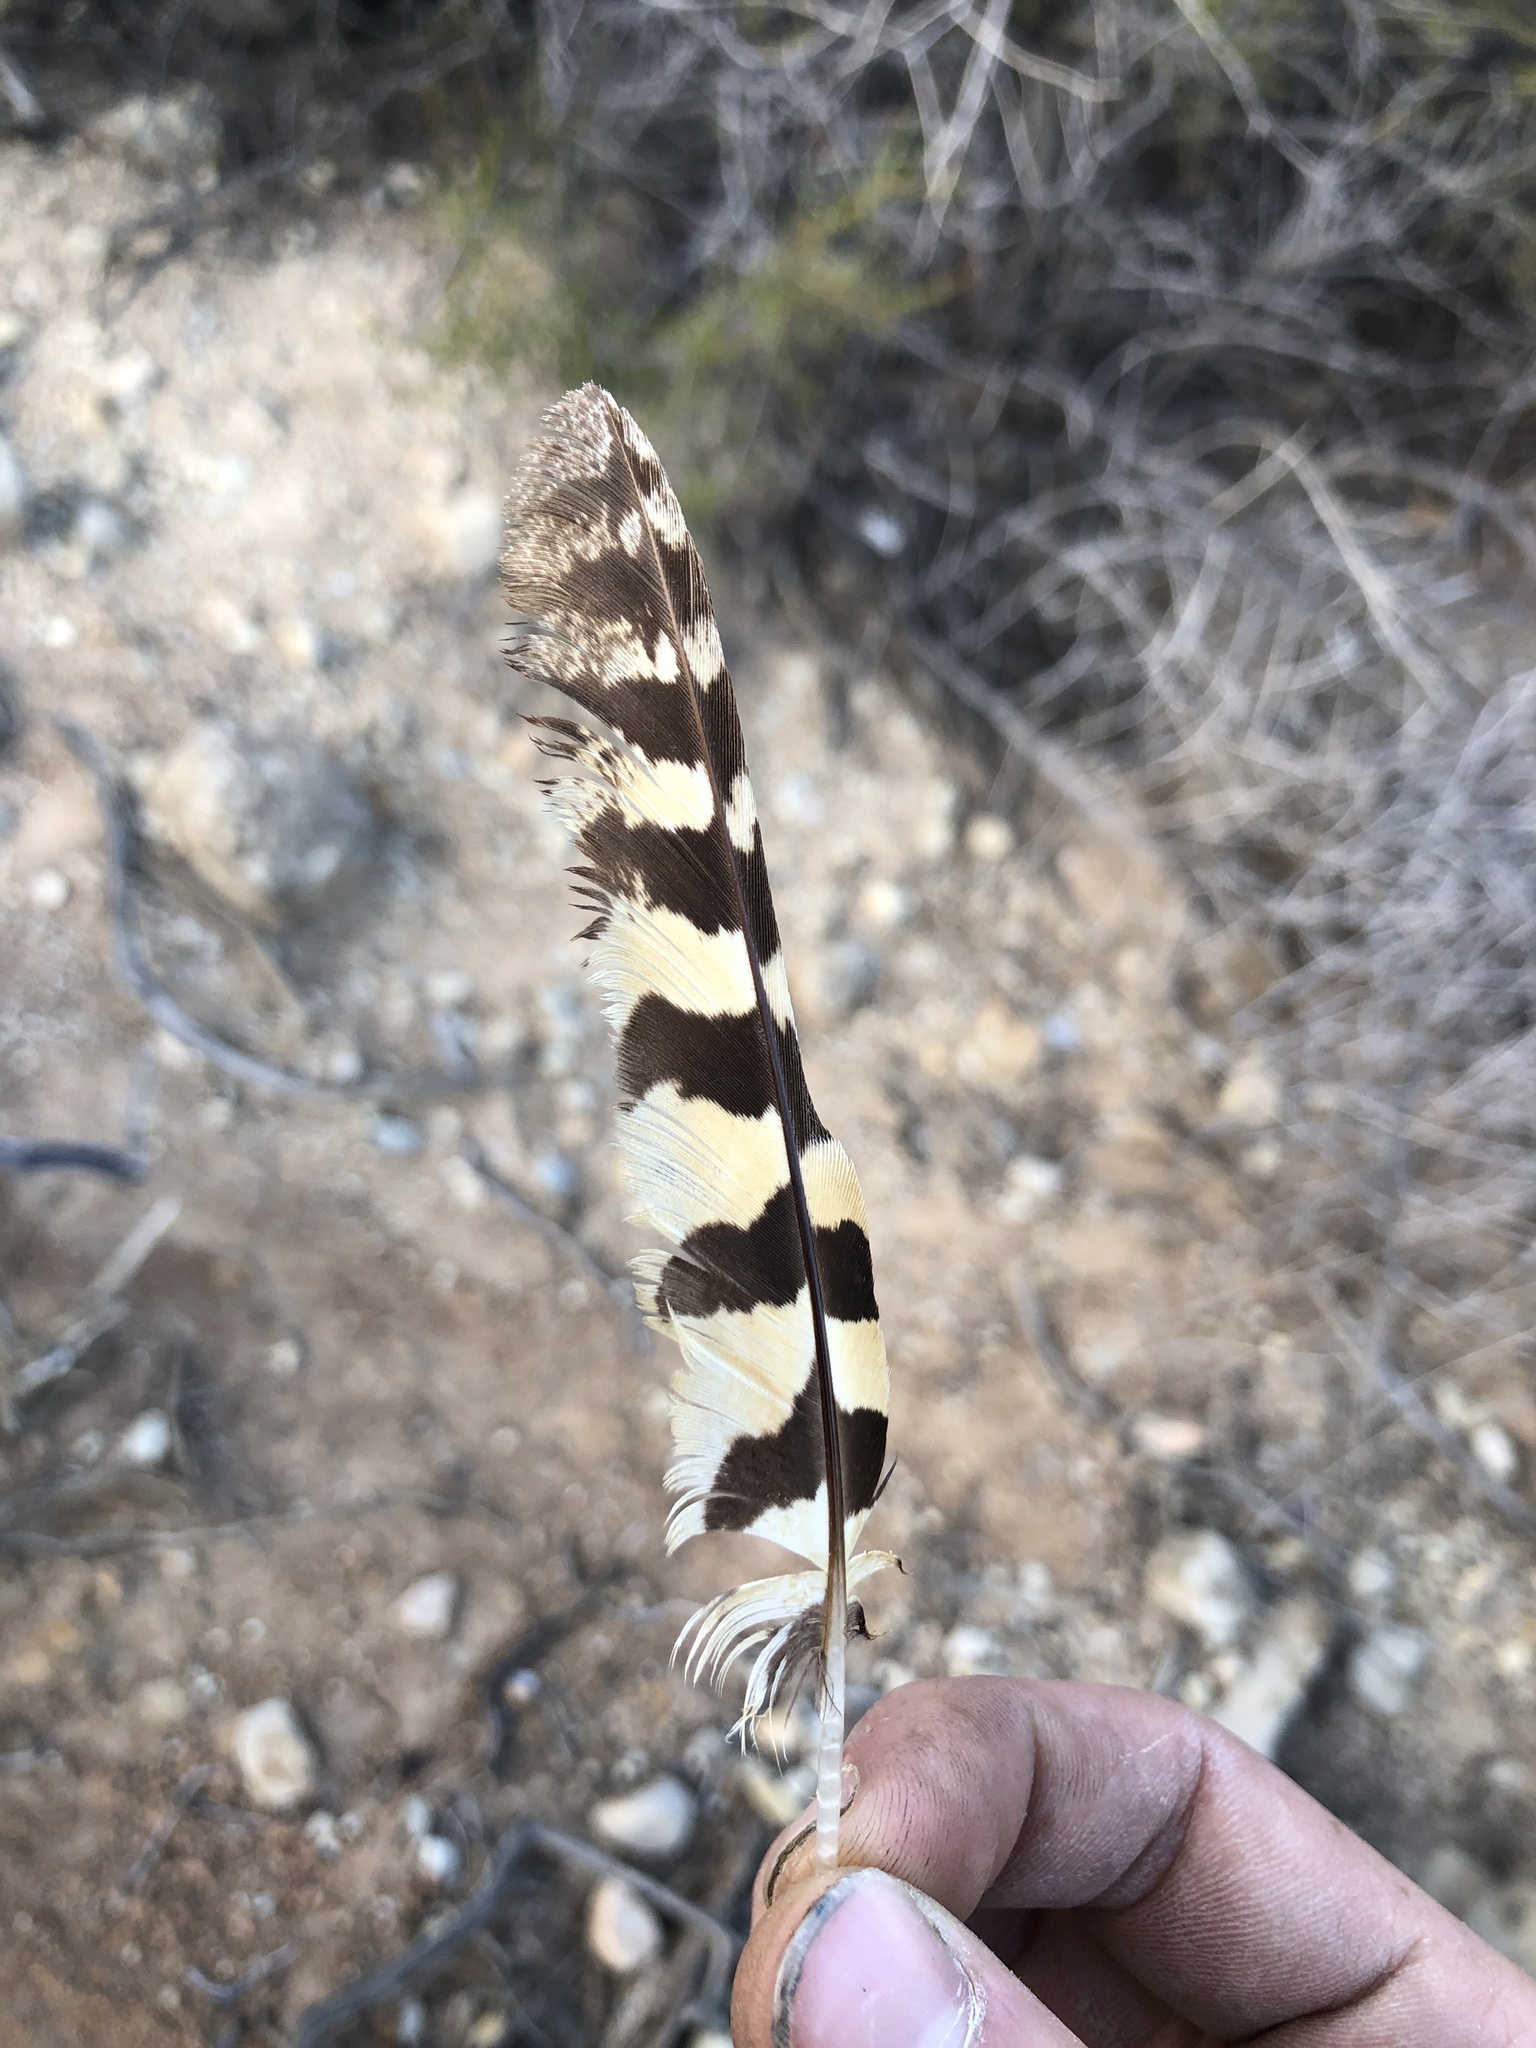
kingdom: Animalia
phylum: Chordata
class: Aves
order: Caprimulgiformes
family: Caprimulgidae
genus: Phalaenoptilus
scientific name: Phalaenoptilus nuttallii
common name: Common poorwill
